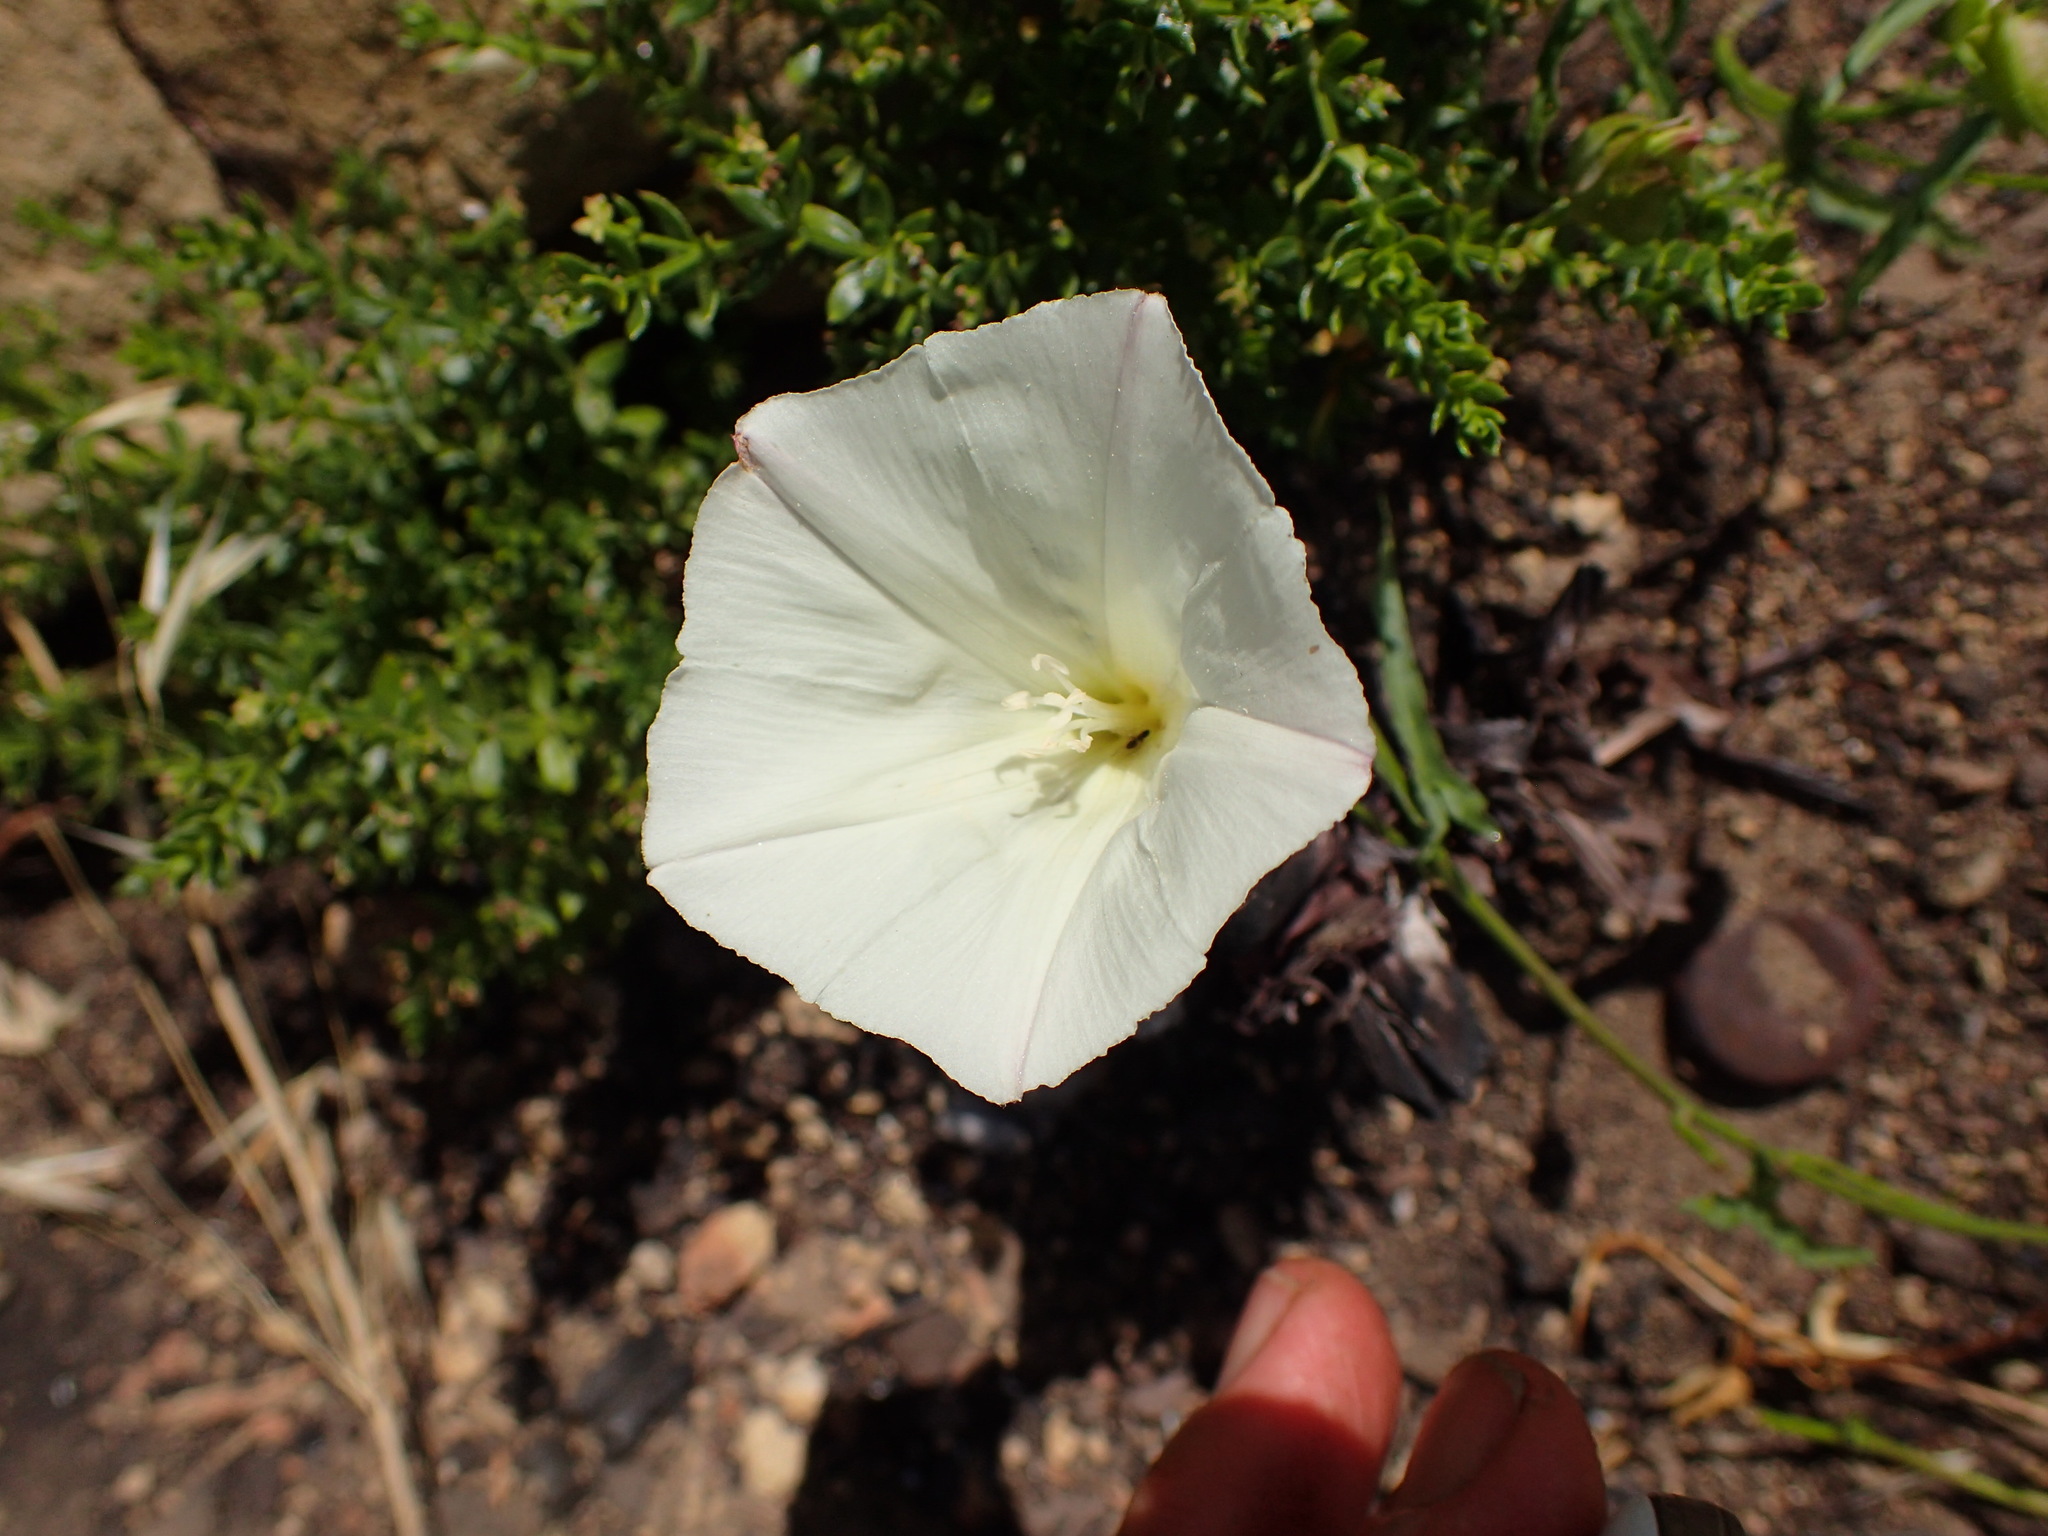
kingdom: Plantae
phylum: Tracheophyta
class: Magnoliopsida
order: Solanales
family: Convolvulaceae
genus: Calystegia
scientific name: Calystegia macrostegia
